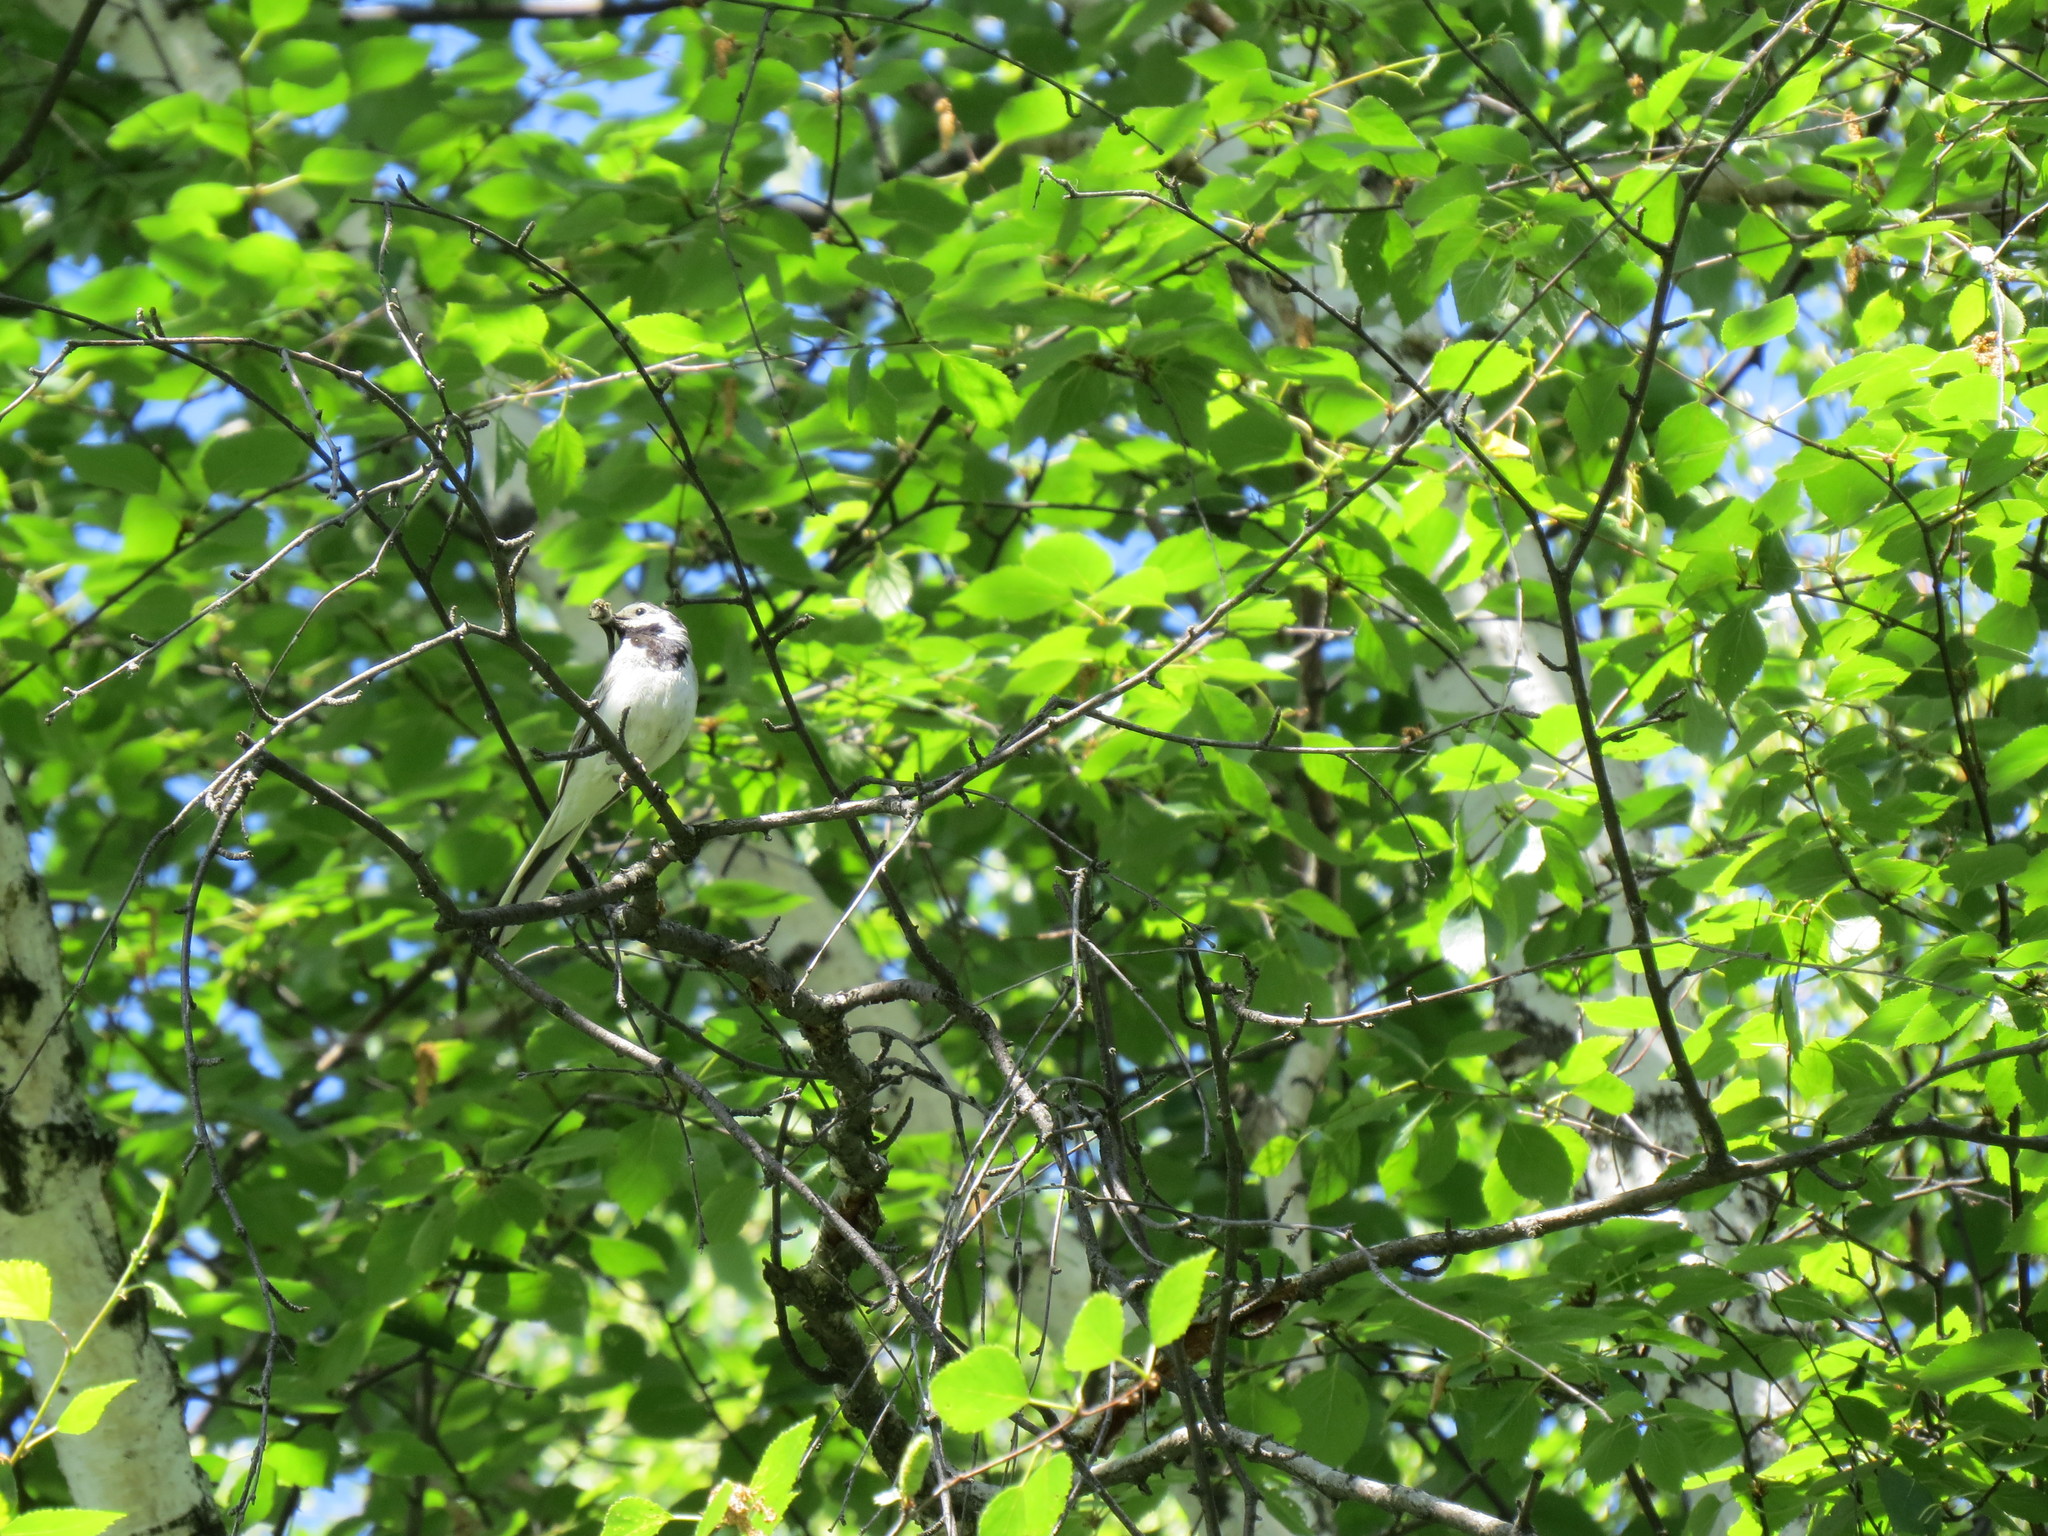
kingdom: Animalia
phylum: Chordata
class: Aves
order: Passeriformes
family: Motacillidae
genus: Motacilla
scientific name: Motacilla alba
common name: White wagtail
